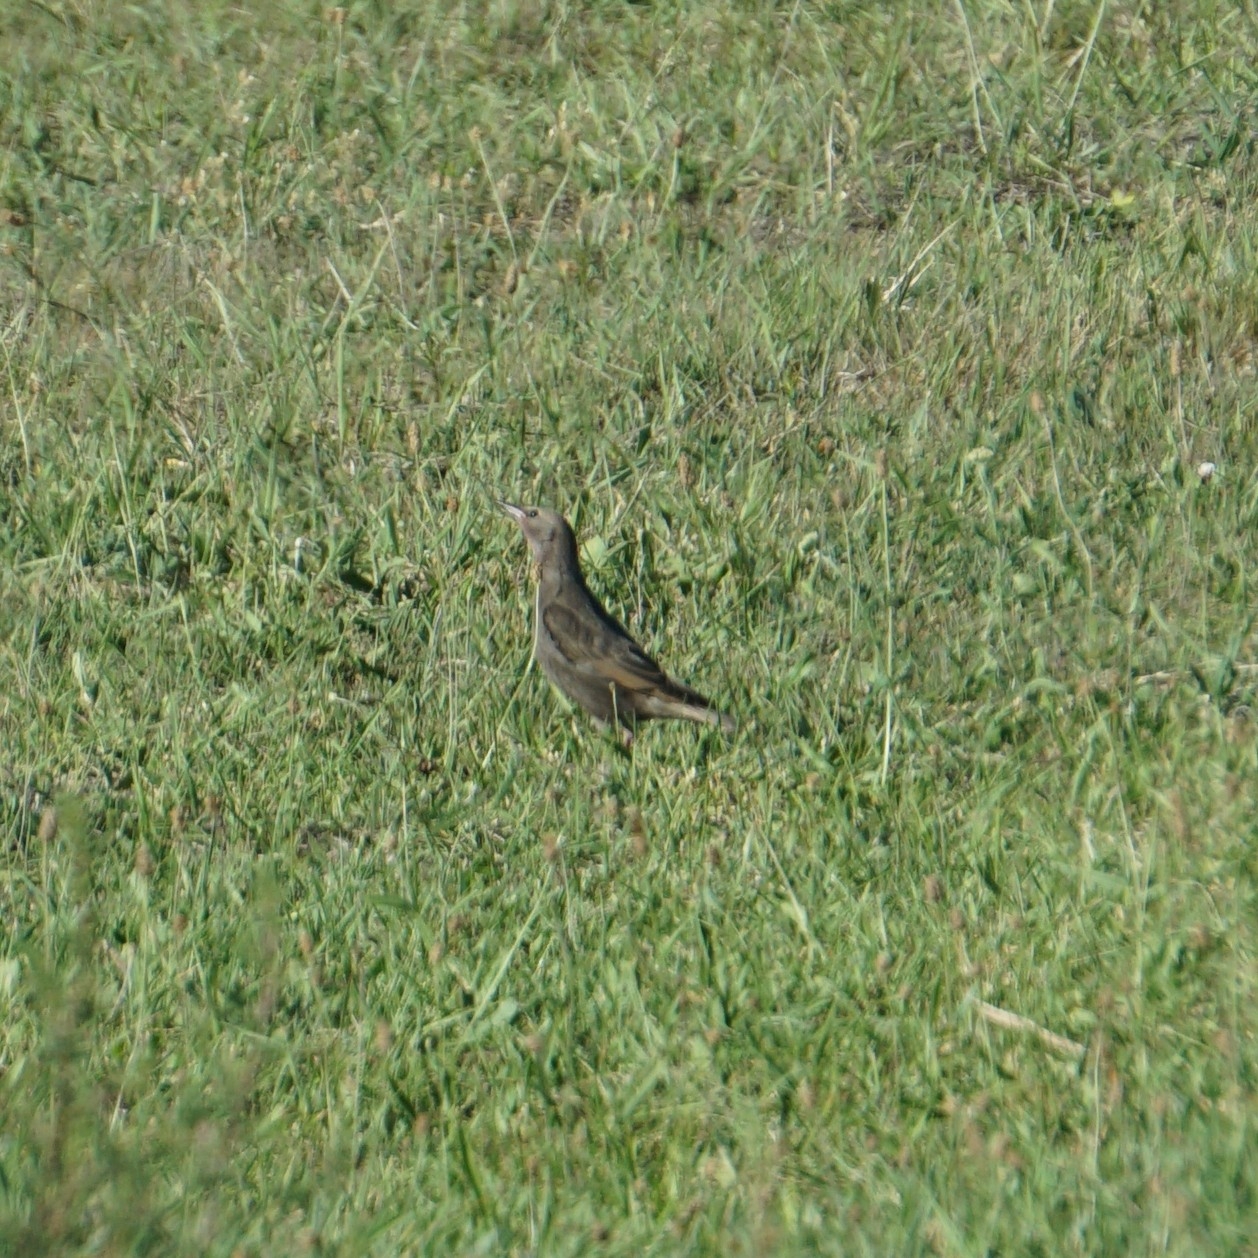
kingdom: Animalia
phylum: Chordata
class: Aves
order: Passeriformes
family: Sturnidae
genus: Sturnus
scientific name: Sturnus vulgaris
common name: Common starling
